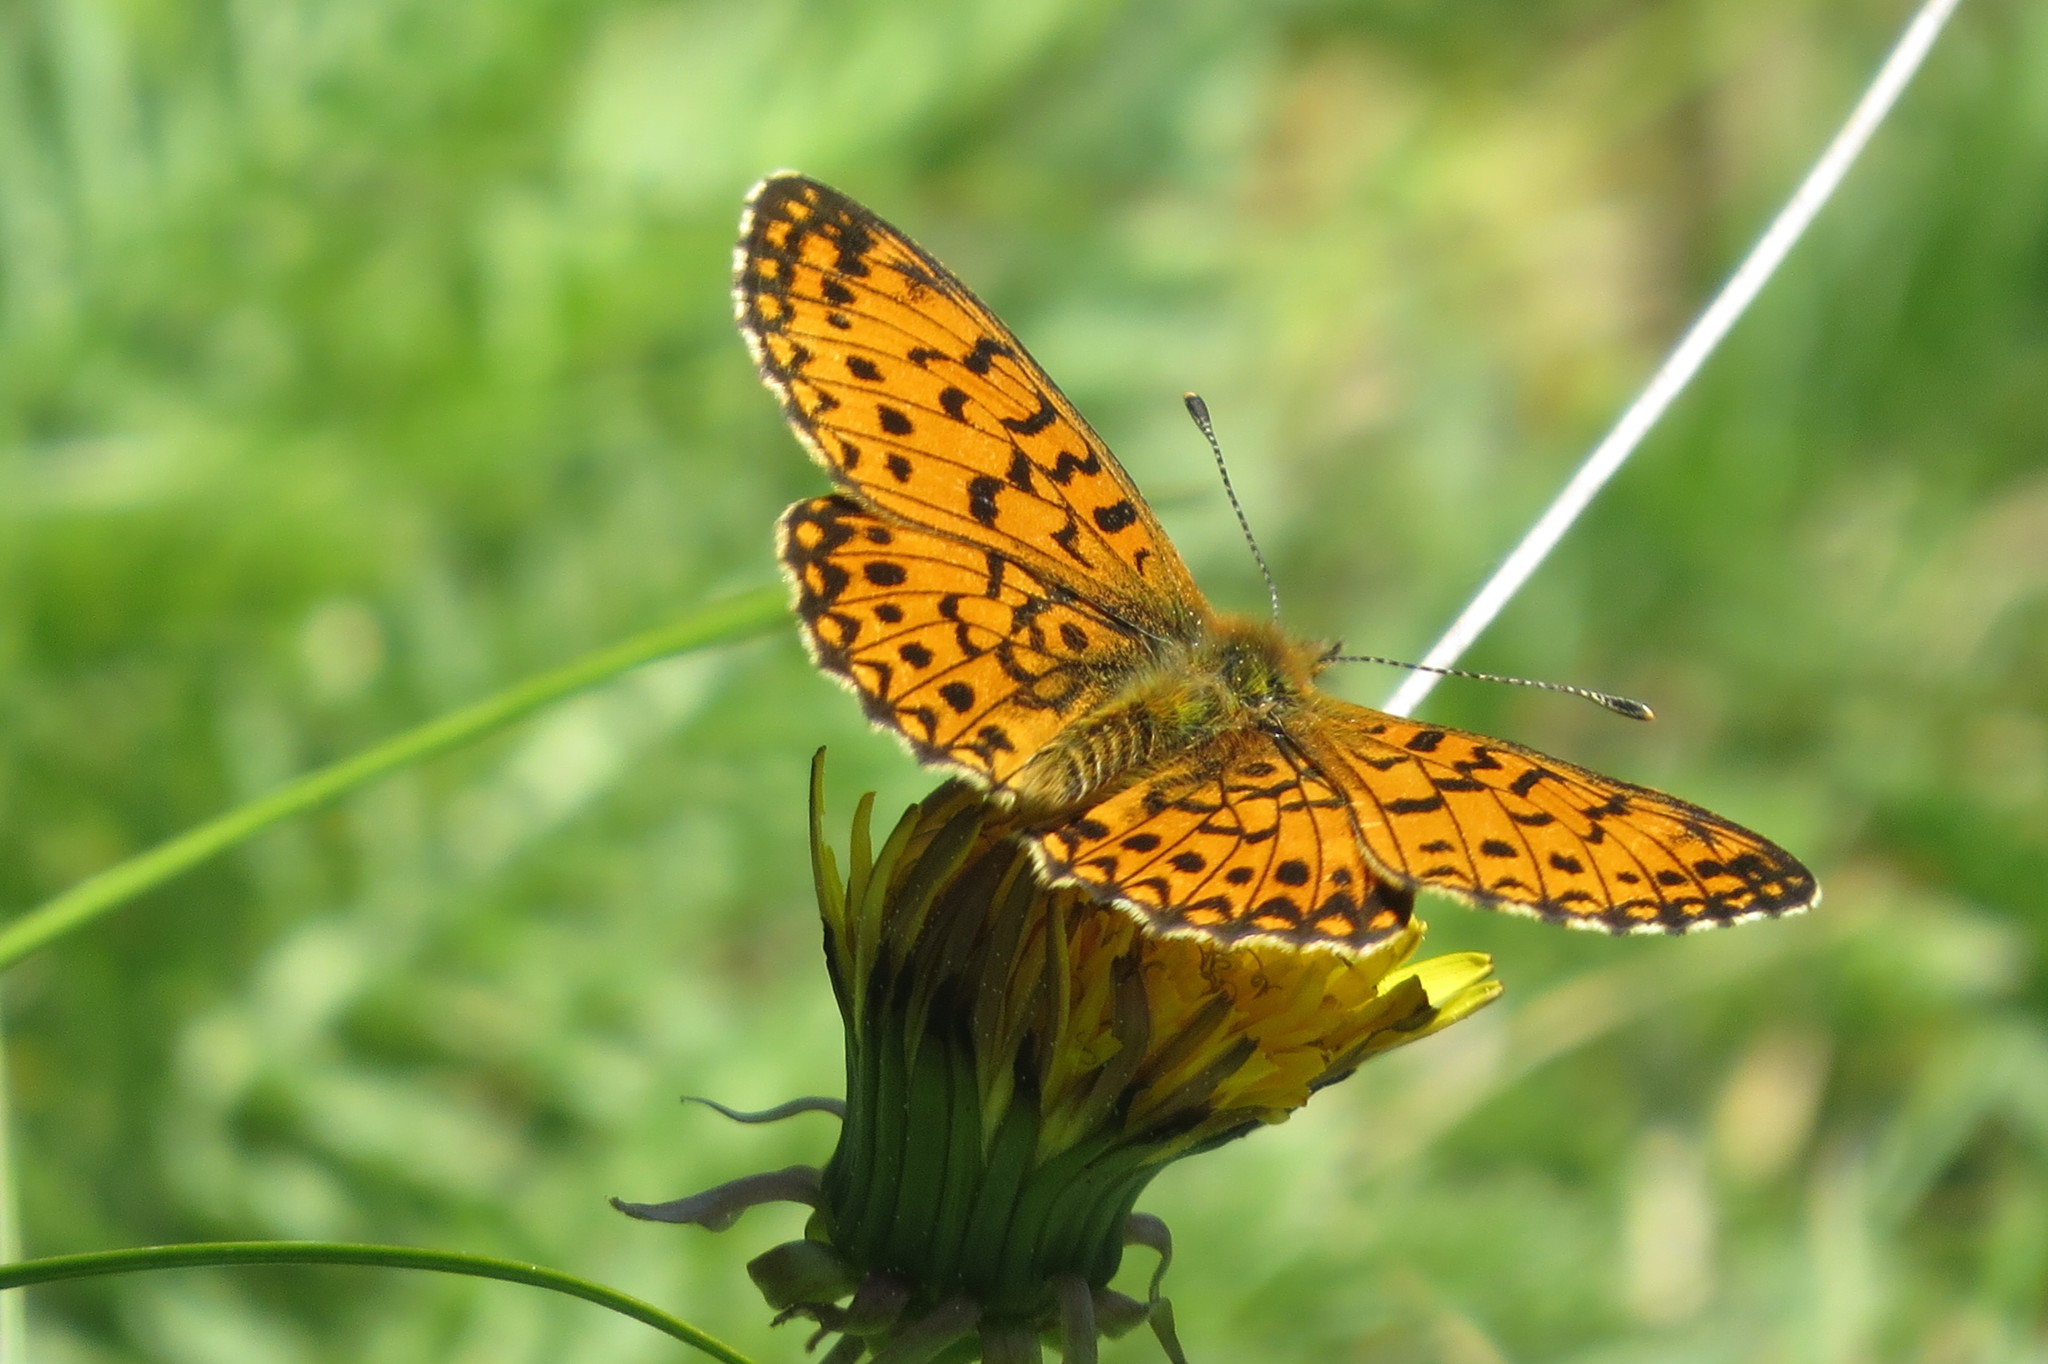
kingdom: Animalia
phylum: Arthropoda
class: Insecta
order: Lepidoptera
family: Nymphalidae
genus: Boloria
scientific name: Boloria selene
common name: Small pearl-bordered fritillary
